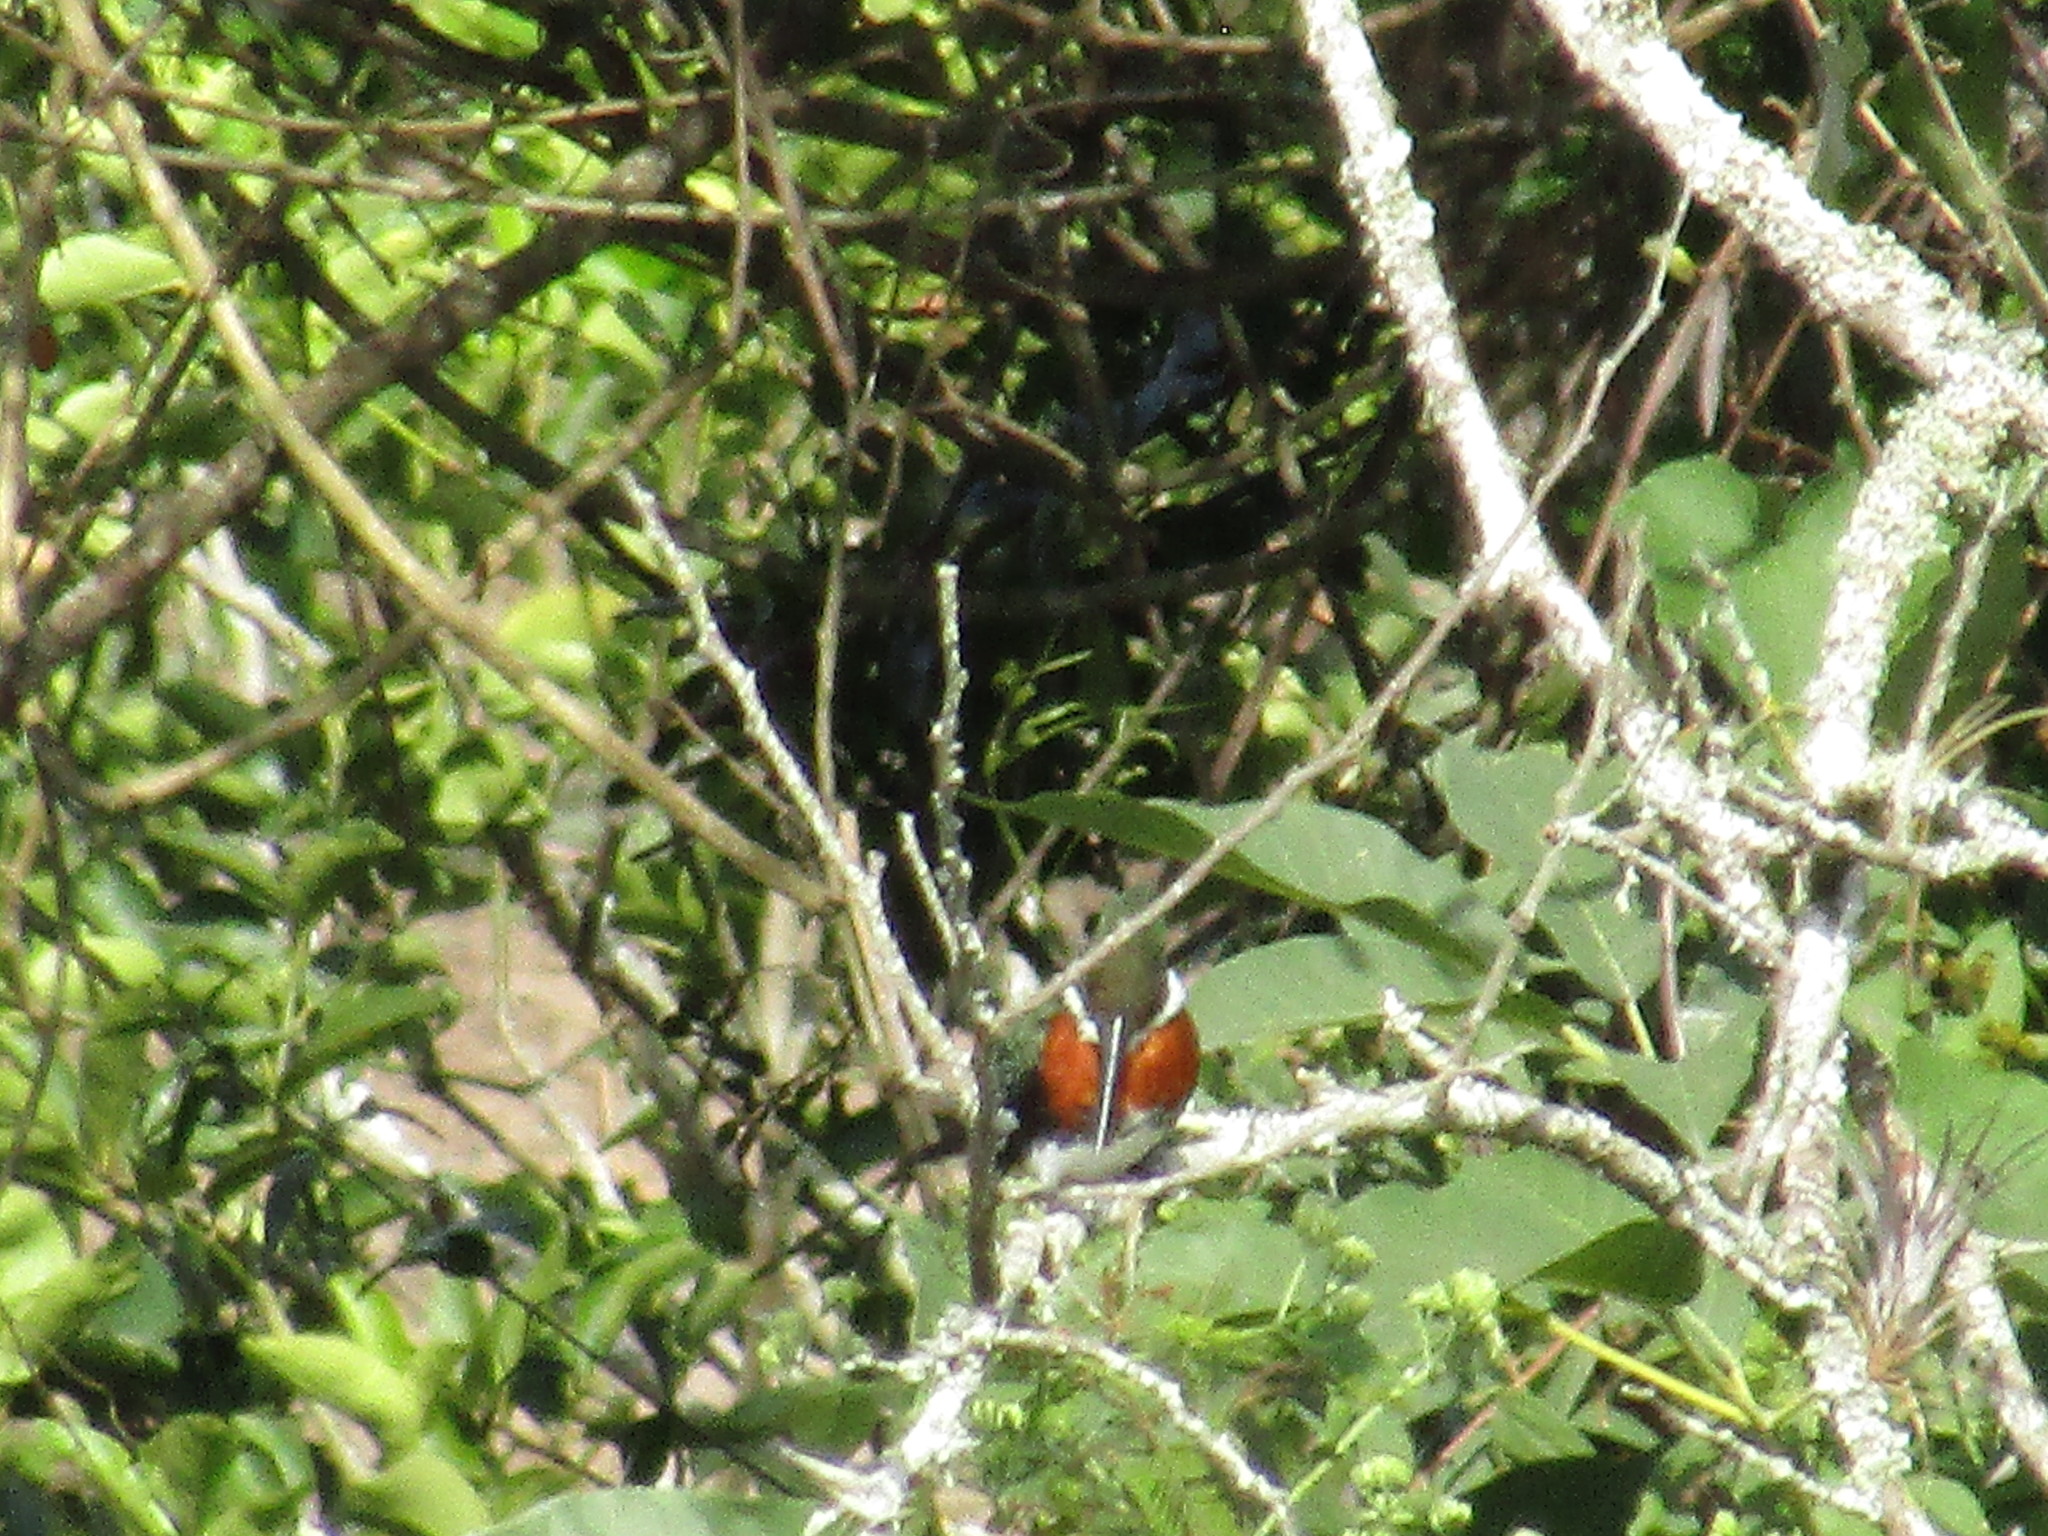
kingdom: Animalia
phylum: Chordata
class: Aves
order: Coraciiformes
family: Alcedinidae
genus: Chloroceryle
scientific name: Chloroceryle americana
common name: Green kingfisher
